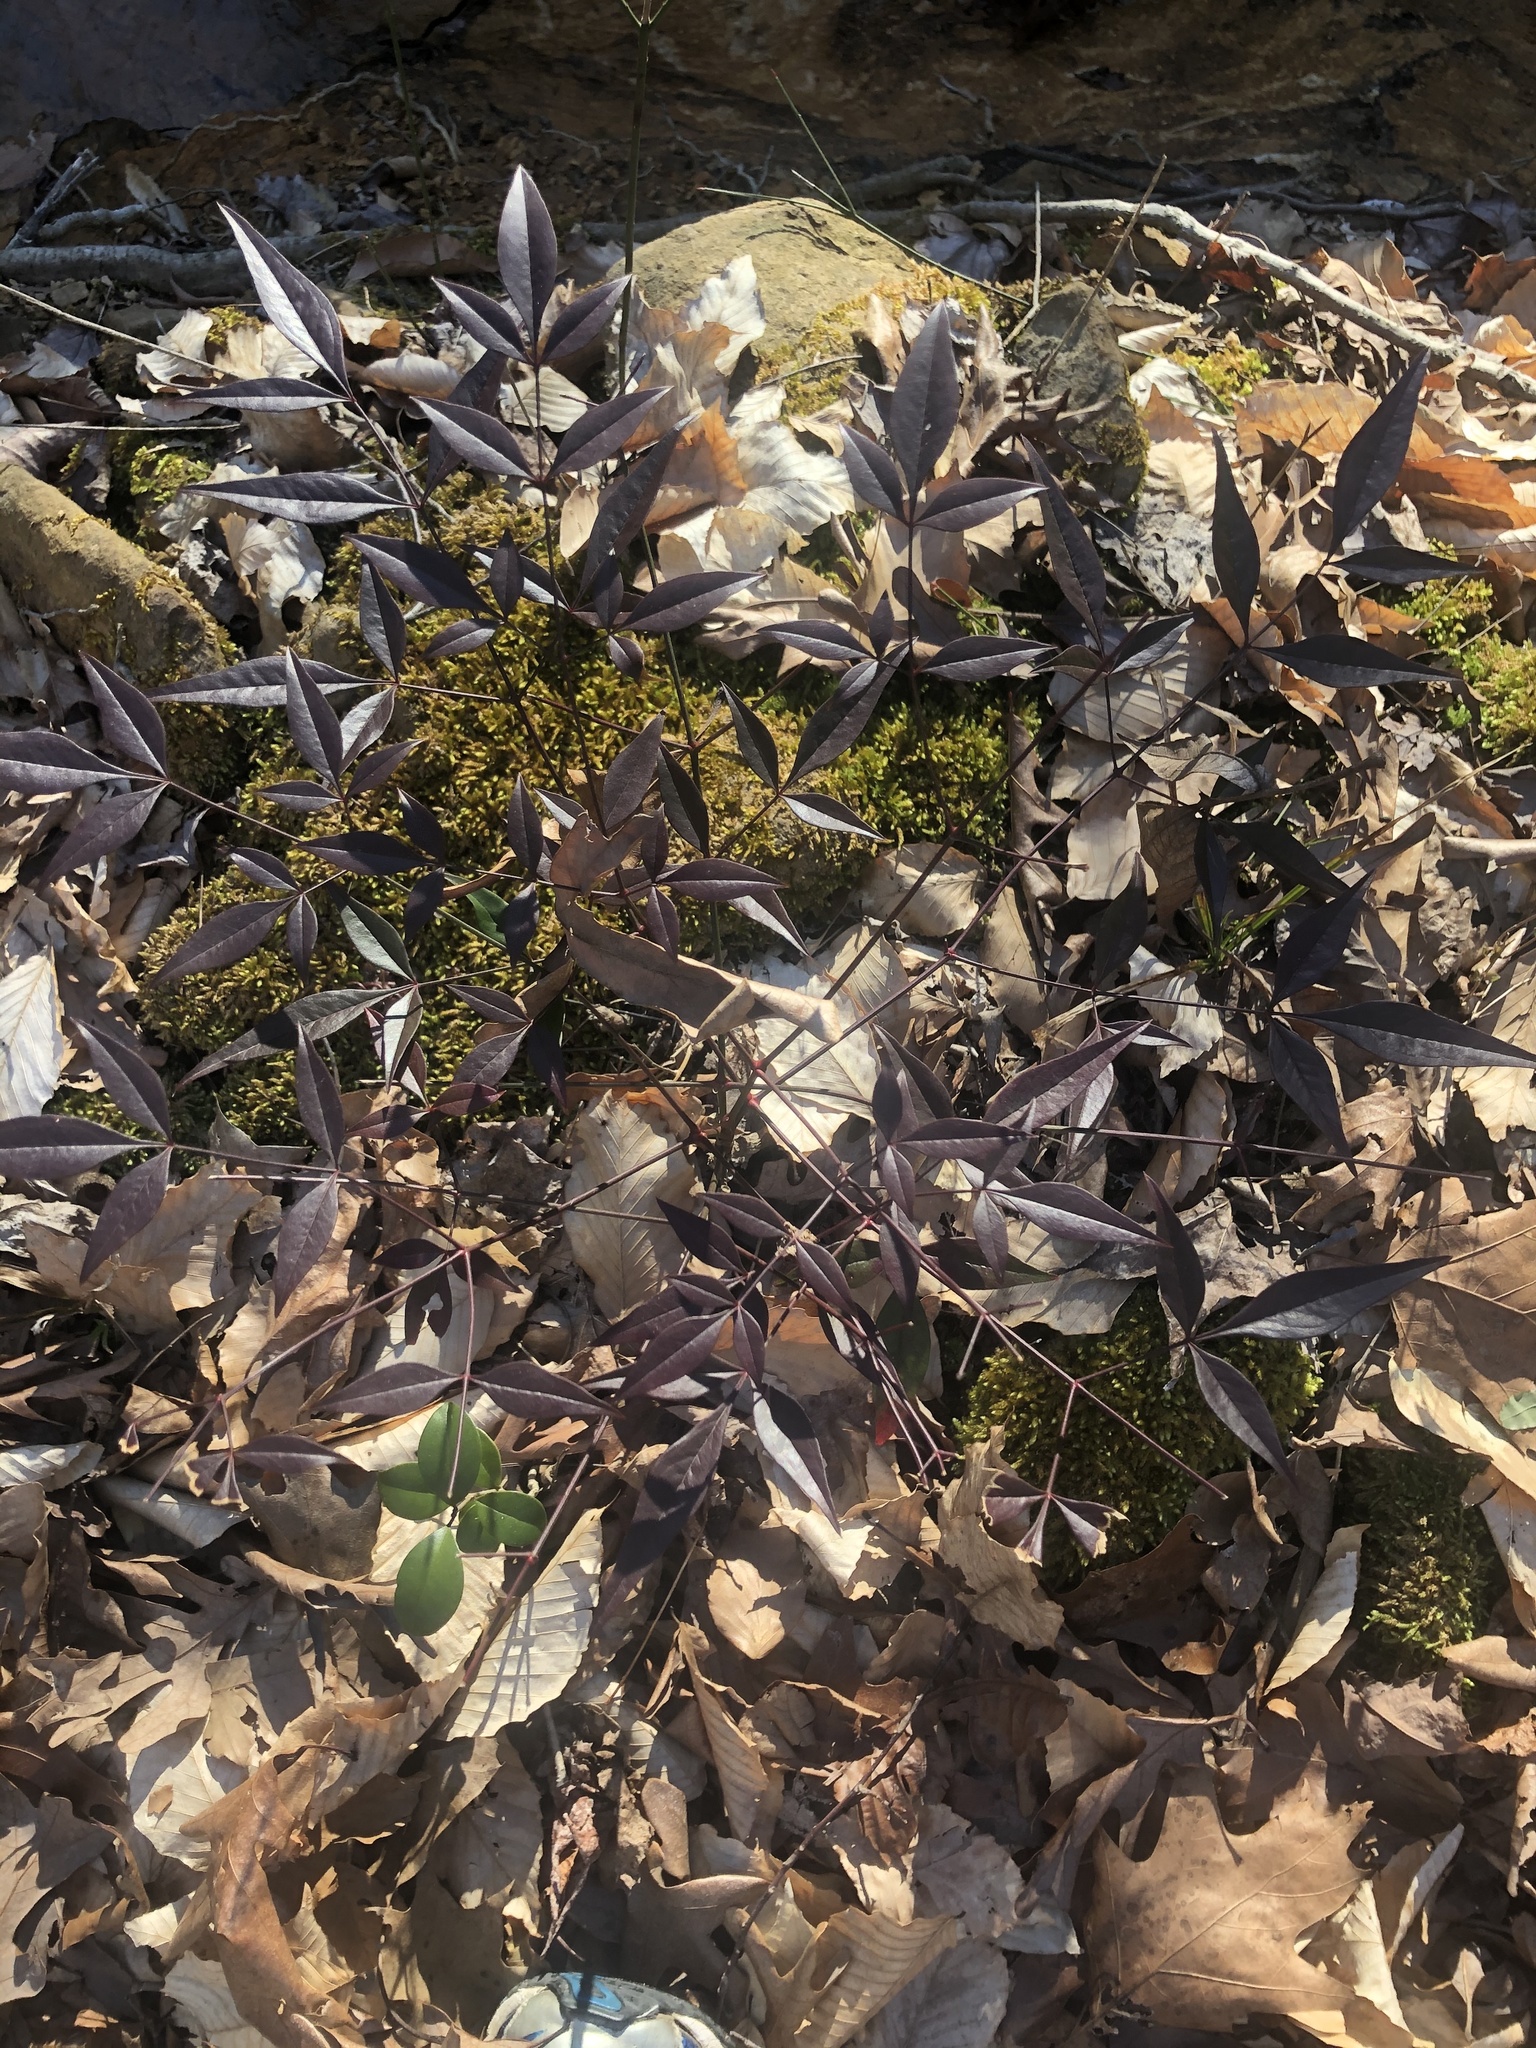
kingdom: Plantae
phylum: Tracheophyta
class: Magnoliopsida
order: Ranunculales
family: Berberidaceae
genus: Nandina
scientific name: Nandina domestica
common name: Sacred bamboo
